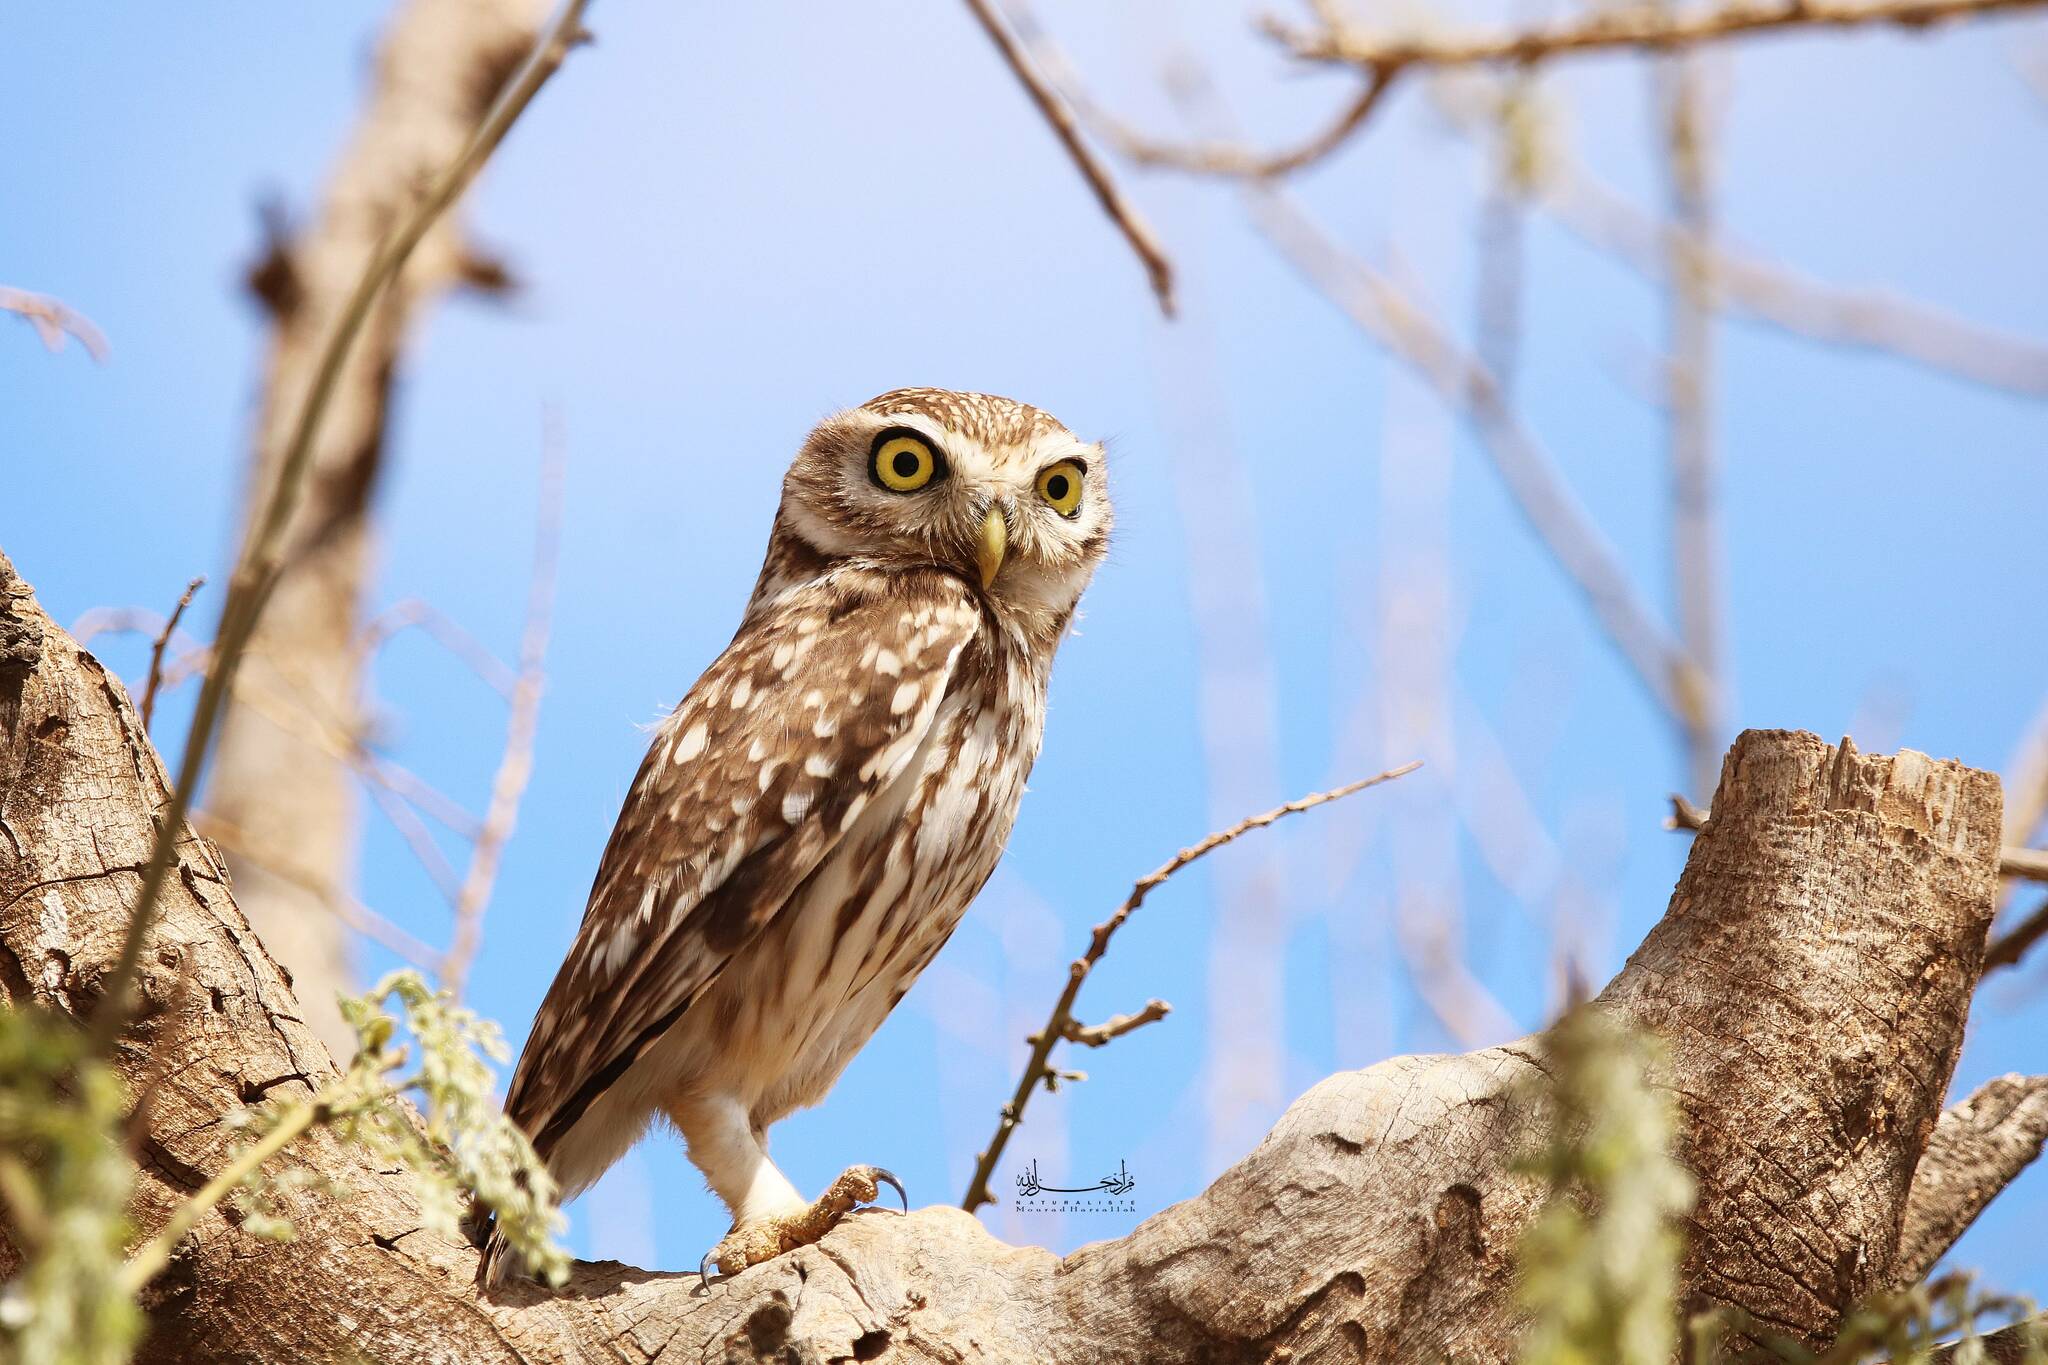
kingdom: Animalia
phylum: Chordata
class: Aves
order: Strigiformes
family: Strigidae
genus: Athene
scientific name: Athene noctua
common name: Little owl
